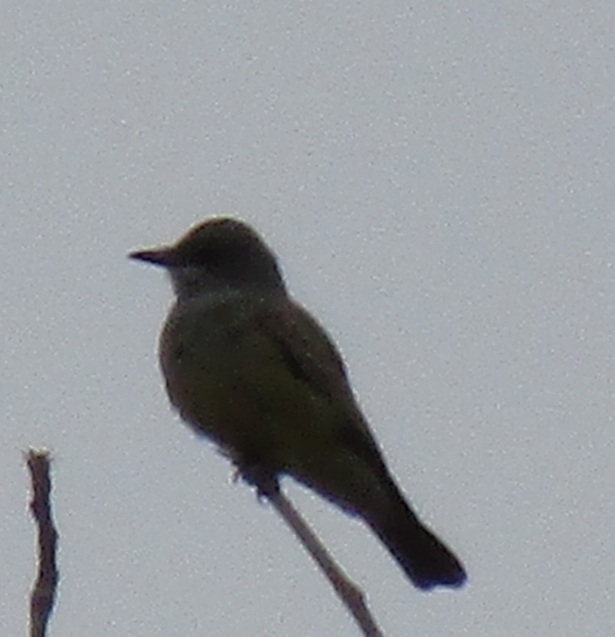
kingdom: Animalia
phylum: Chordata
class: Aves
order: Passeriformes
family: Tyrannidae
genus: Tyrannus
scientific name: Tyrannus vociferans
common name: Cassin's kingbird
